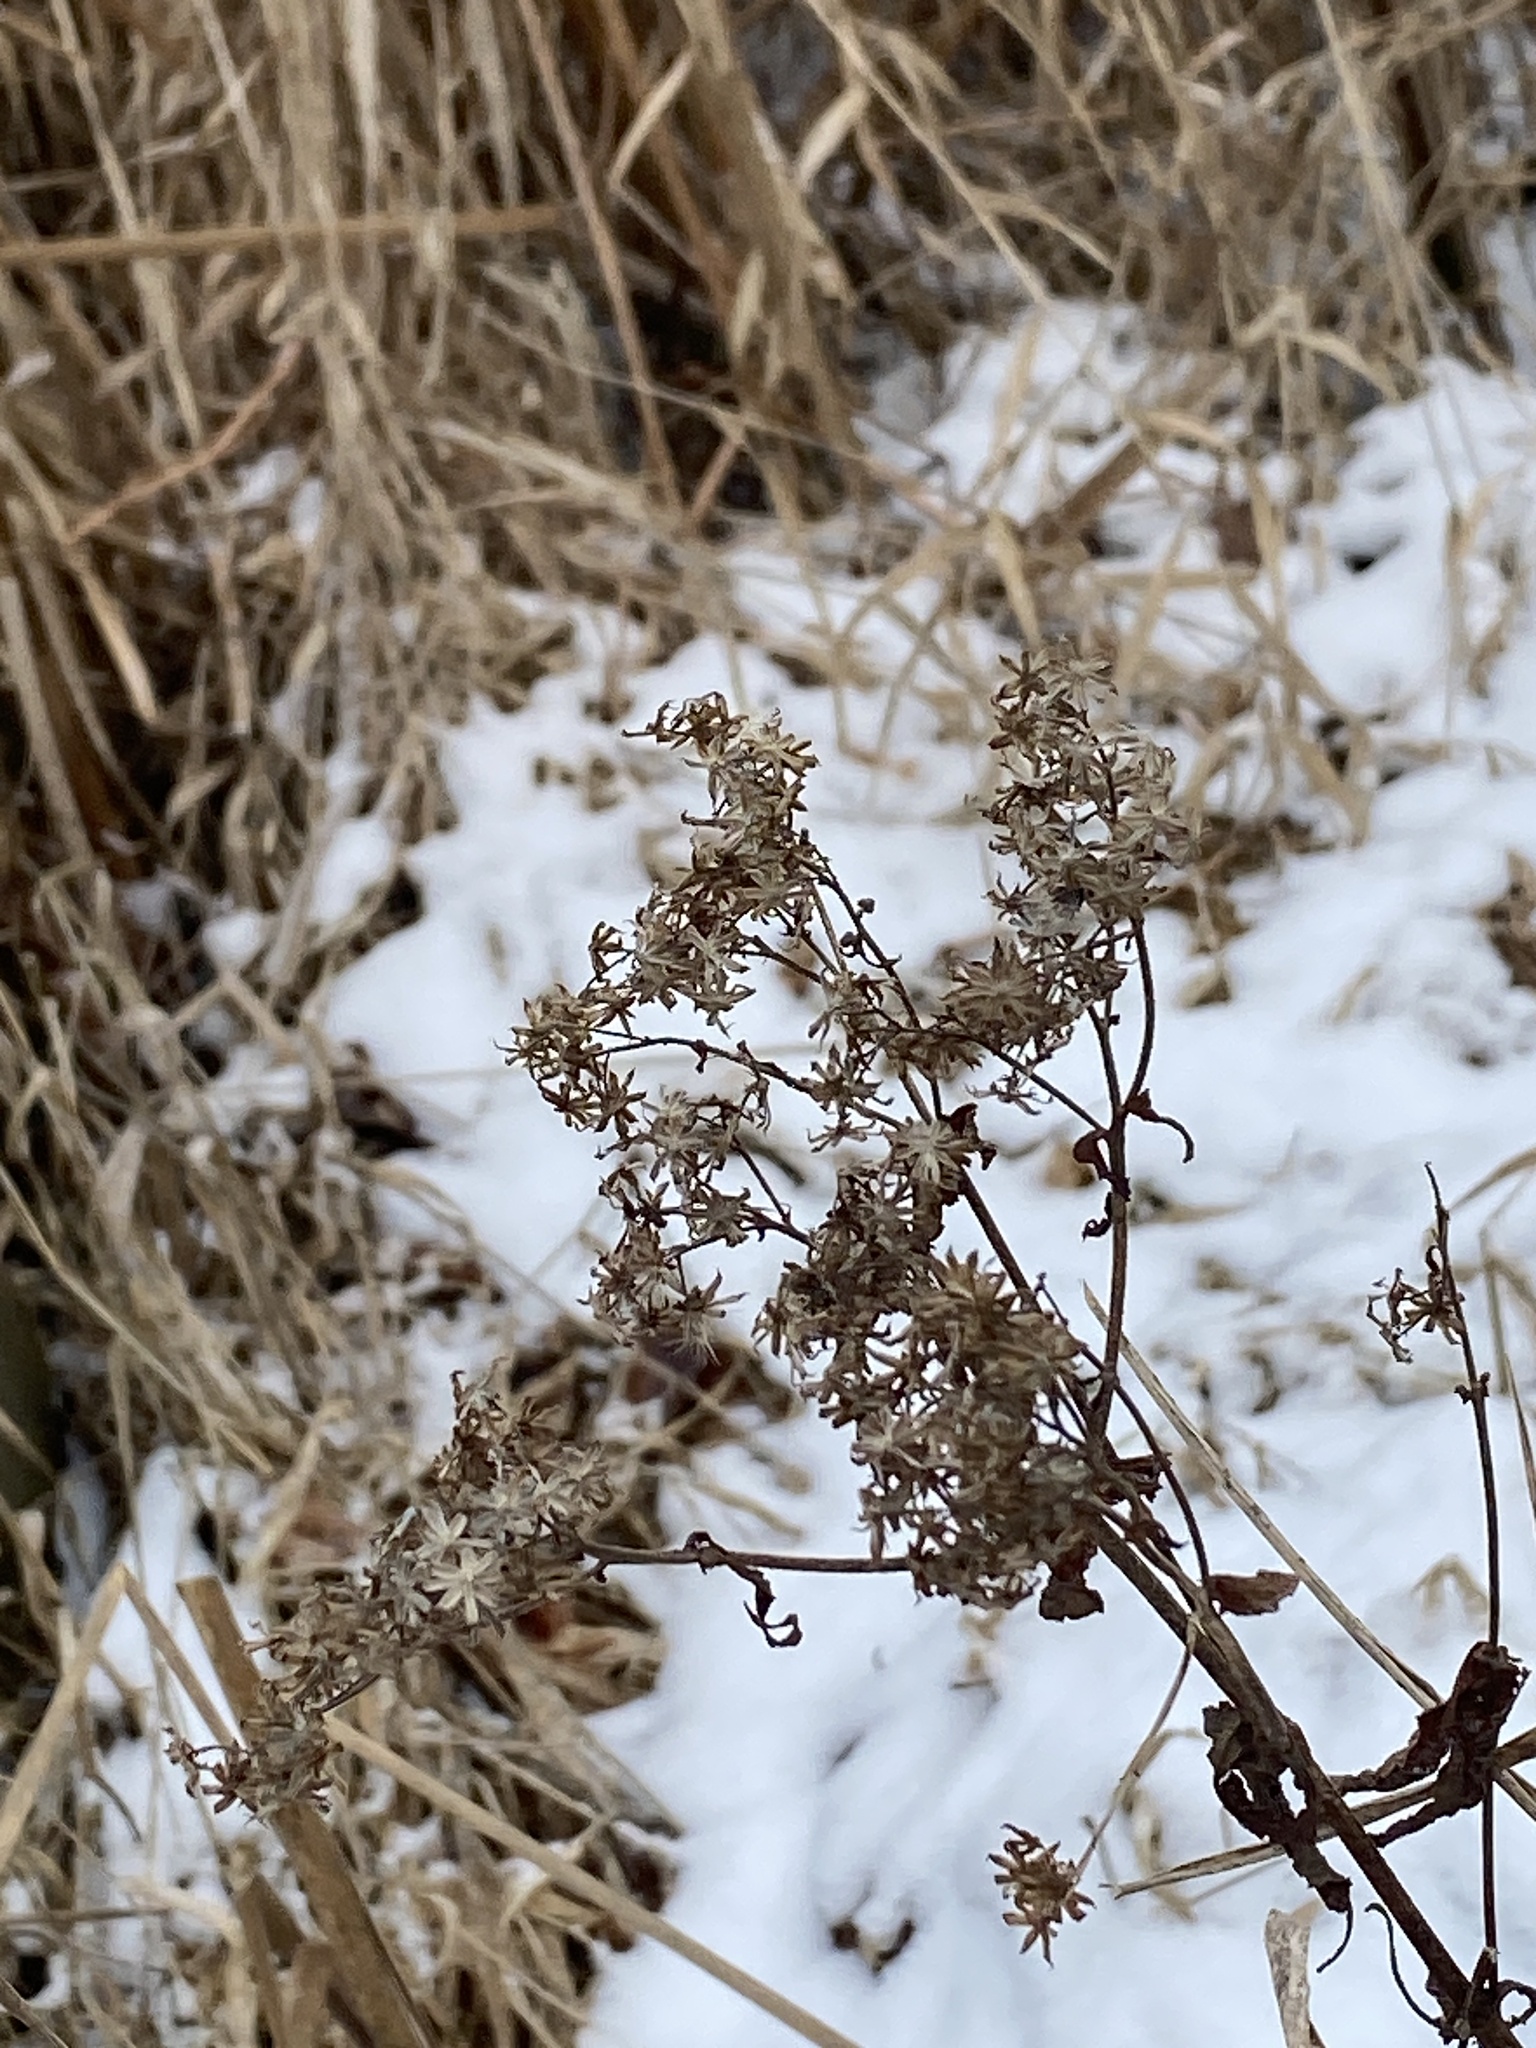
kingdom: Plantae
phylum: Tracheophyta
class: Magnoliopsida
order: Asterales
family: Asteraceae
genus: Euthamia
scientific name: Euthamia graminifolia
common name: Common goldentop
